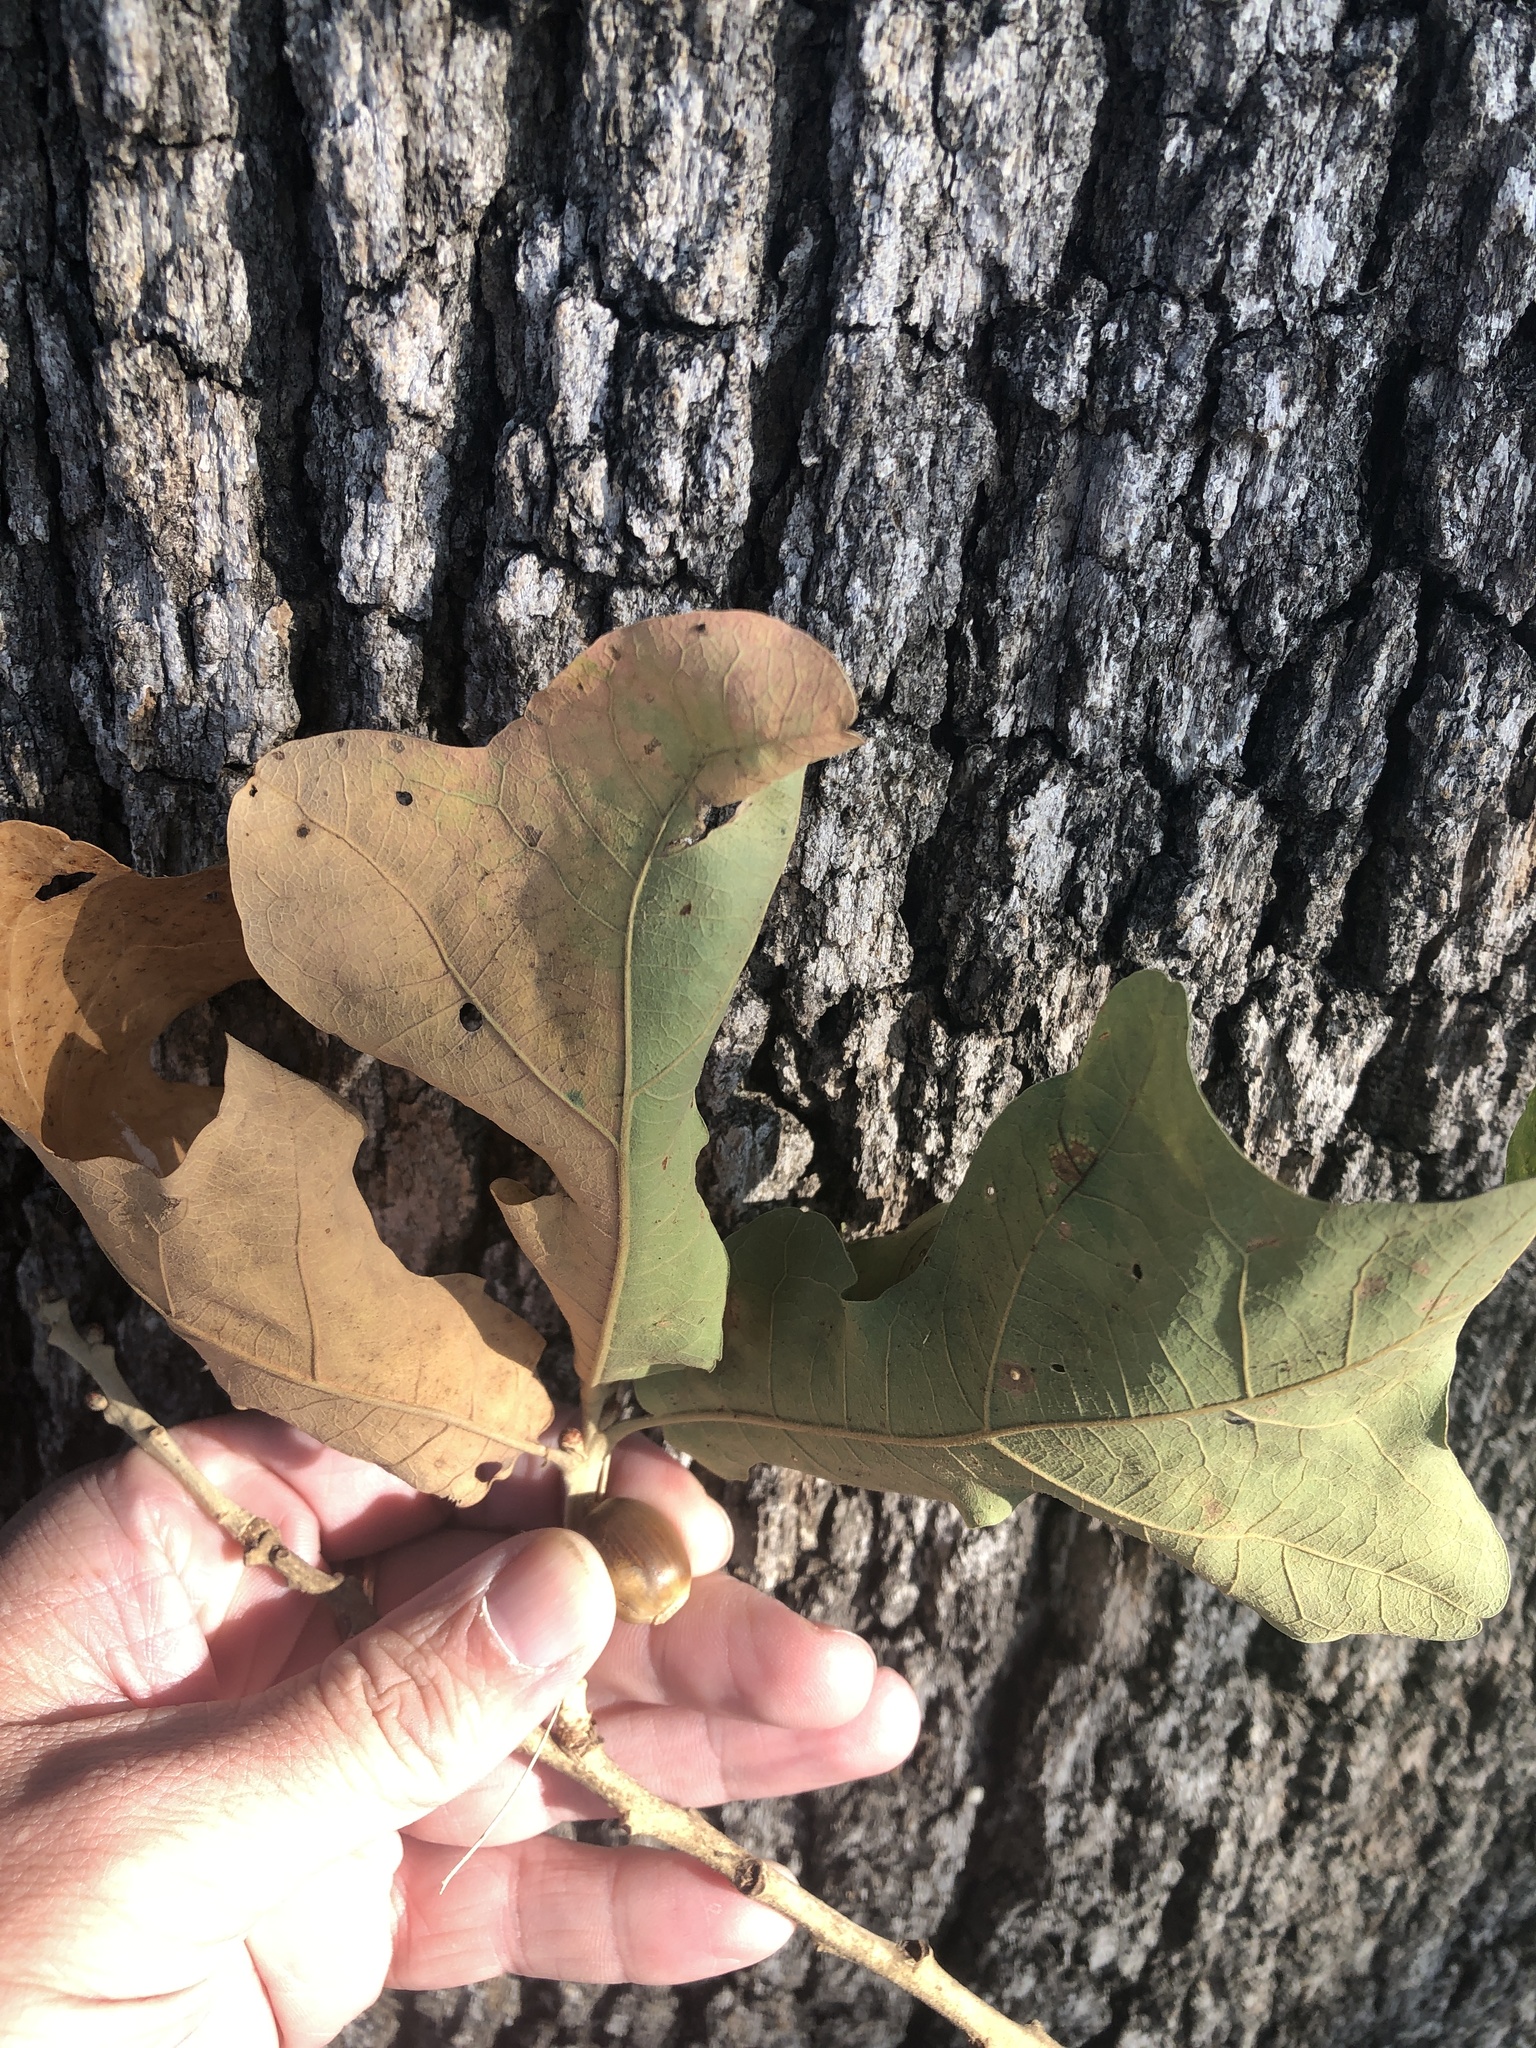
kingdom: Plantae
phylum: Tracheophyta
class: Magnoliopsida
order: Fagales
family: Fagaceae
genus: Quercus
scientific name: Quercus stellata
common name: Post oak
